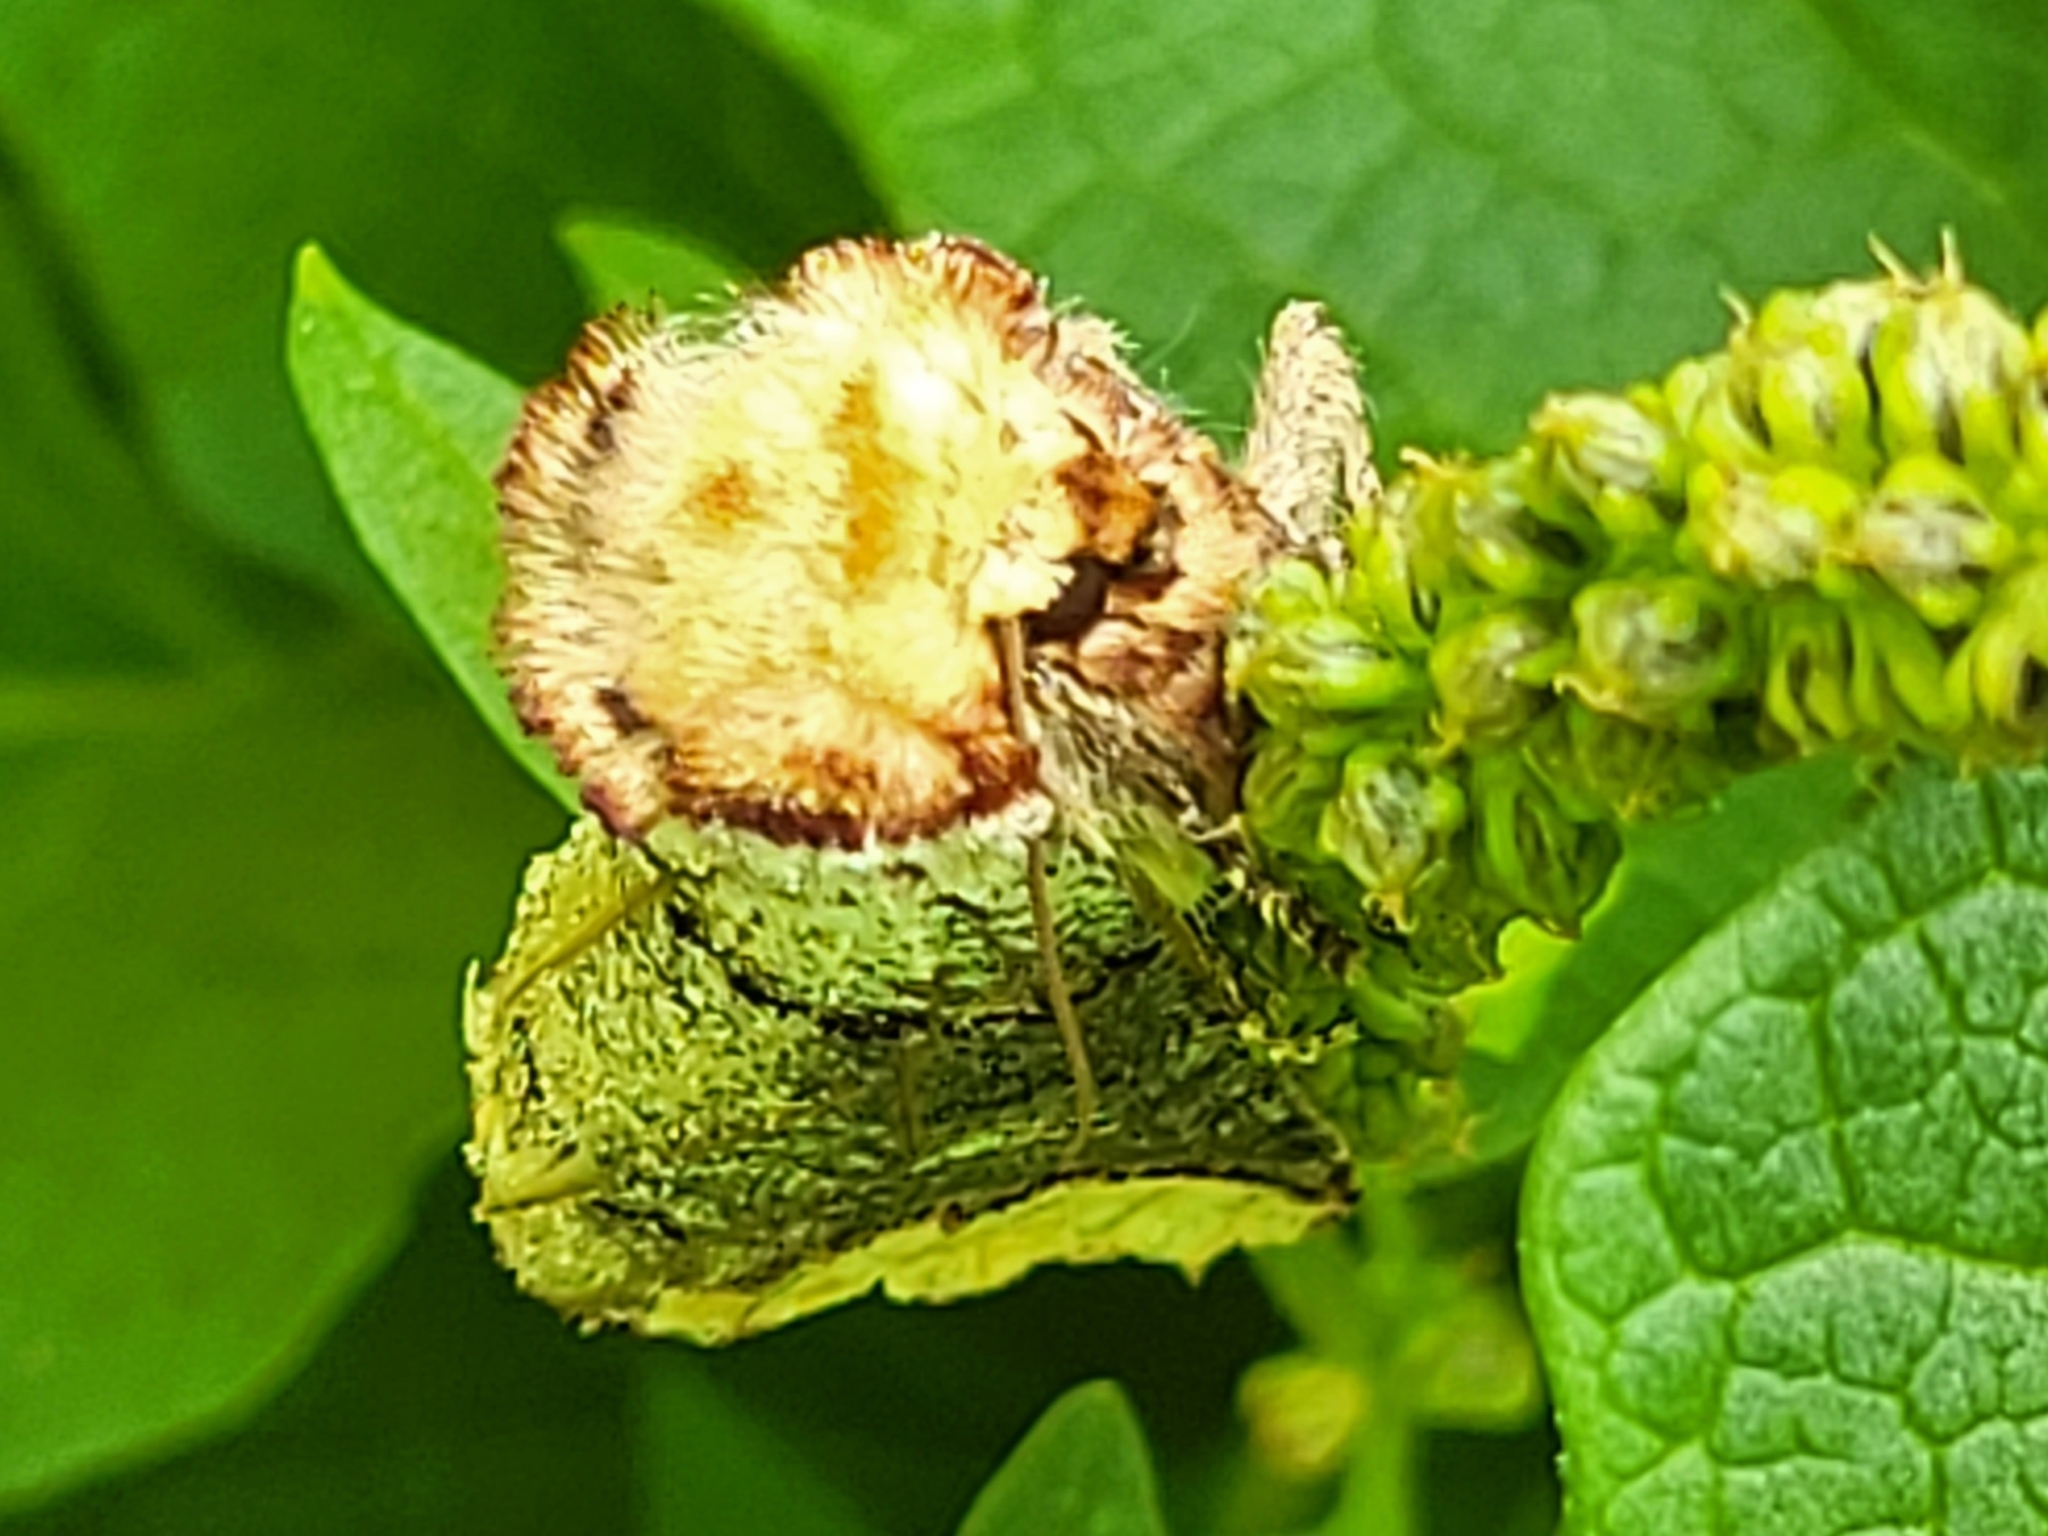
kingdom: Animalia
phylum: Arthropoda
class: Insecta
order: Lepidoptera
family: Notodontidae
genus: Phalera
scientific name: Phalera bucephala
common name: Buff-tip
